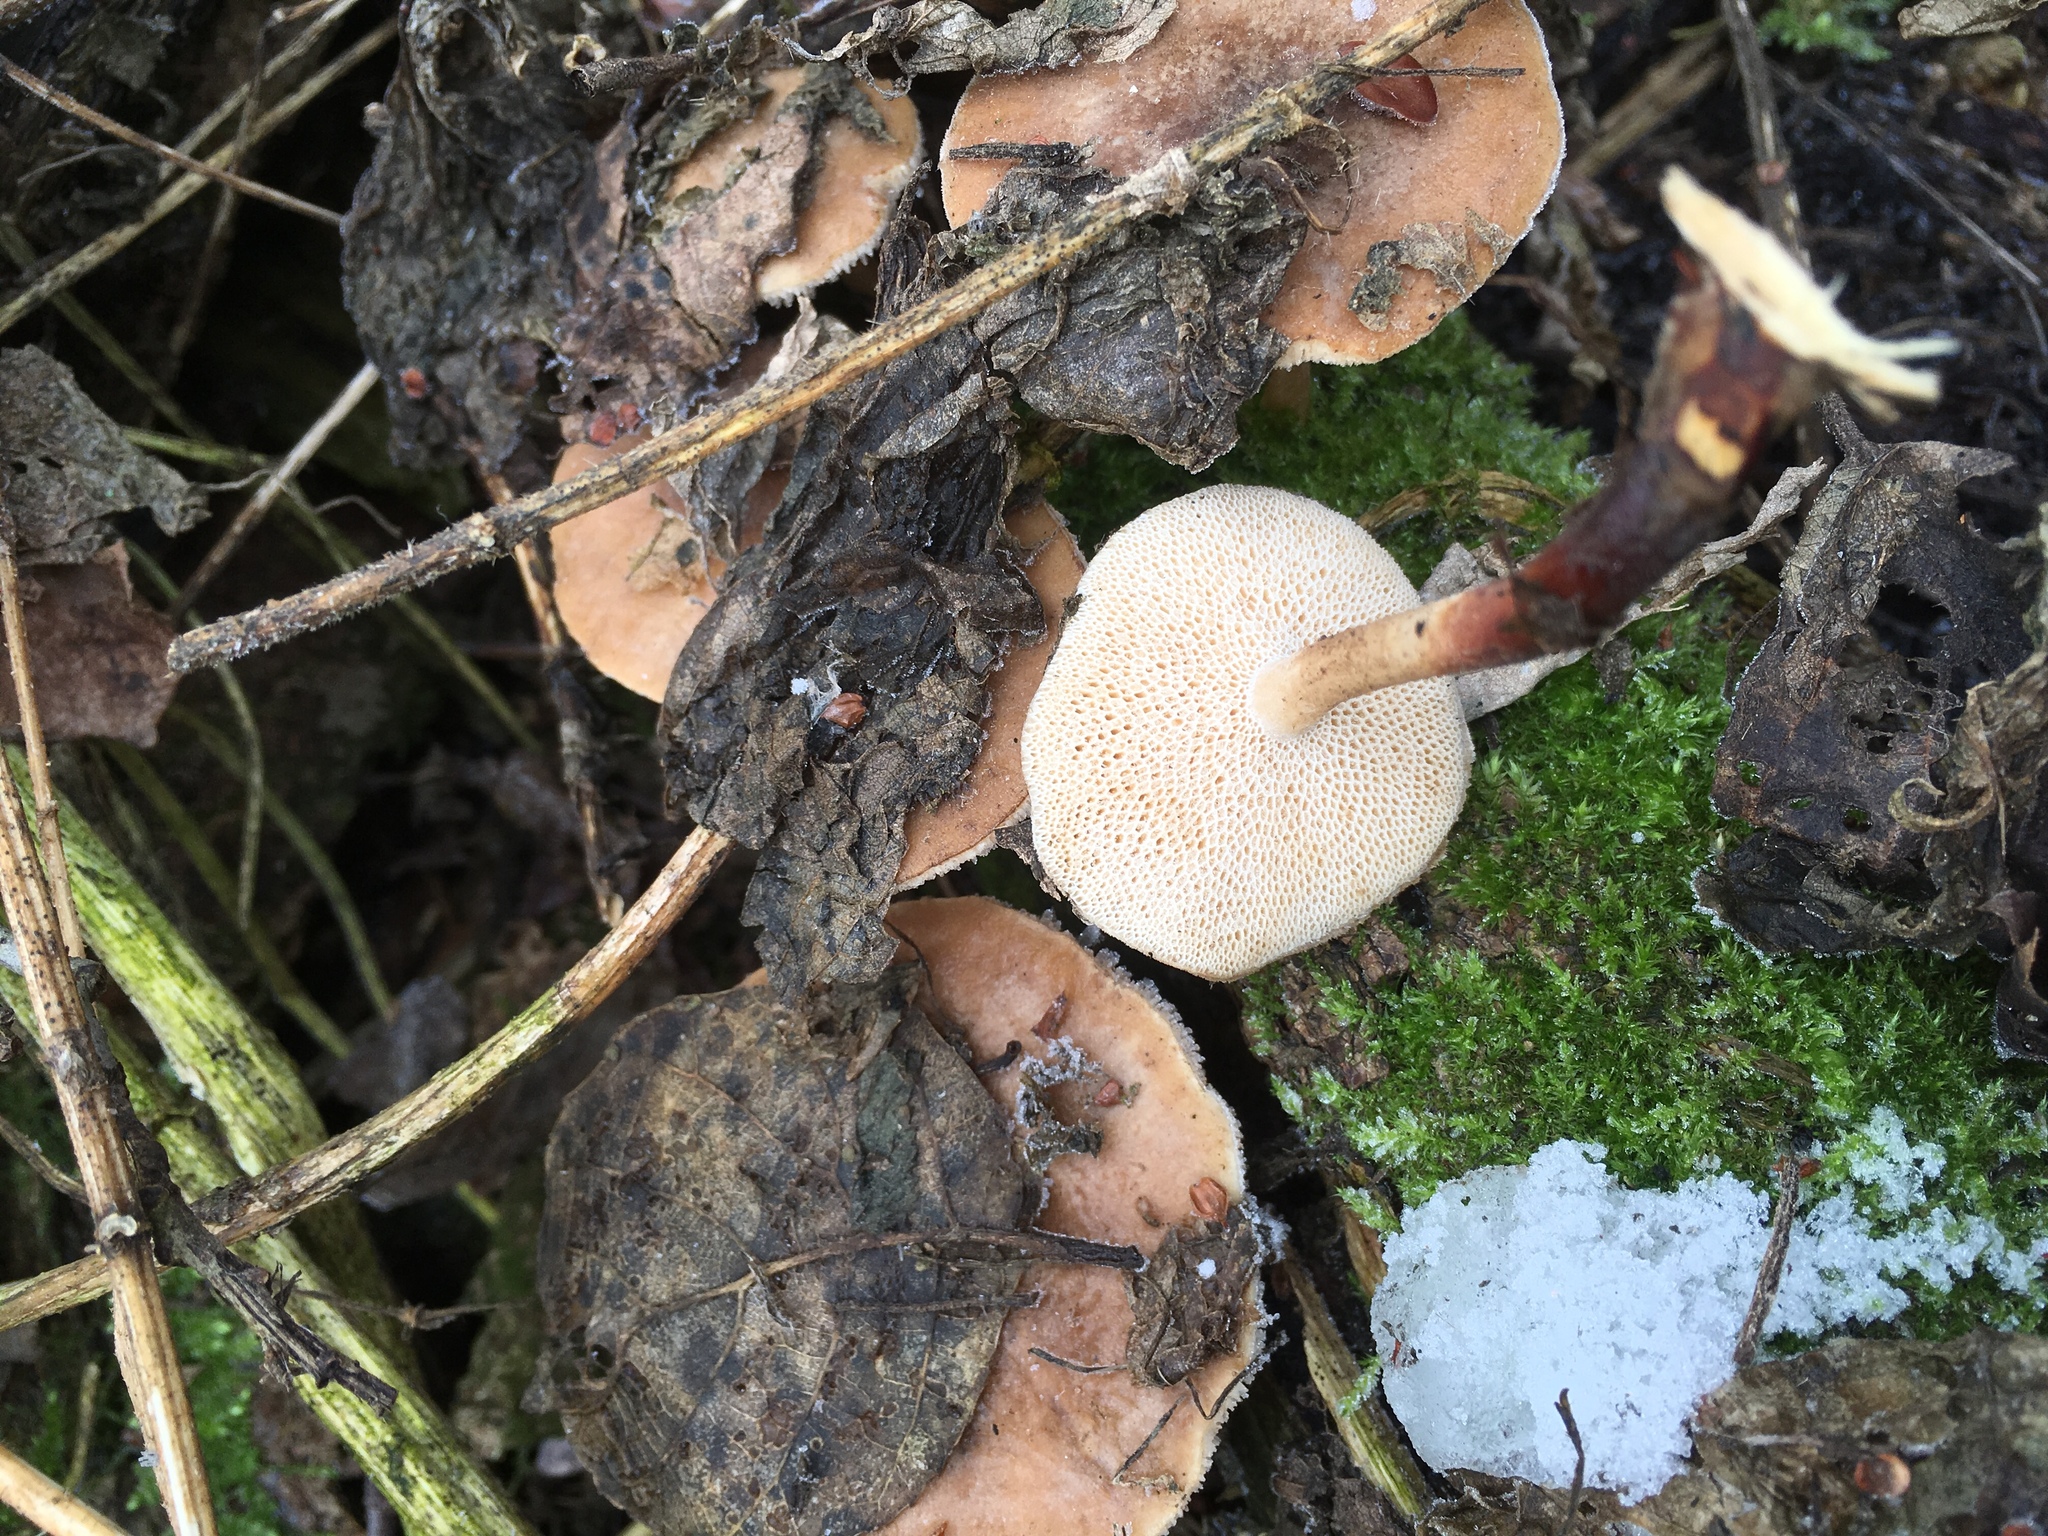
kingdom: Fungi
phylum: Basidiomycota
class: Agaricomycetes
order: Polyporales
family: Polyporaceae
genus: Lentinus
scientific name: Lentinus brumalis
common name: Winter polypore
